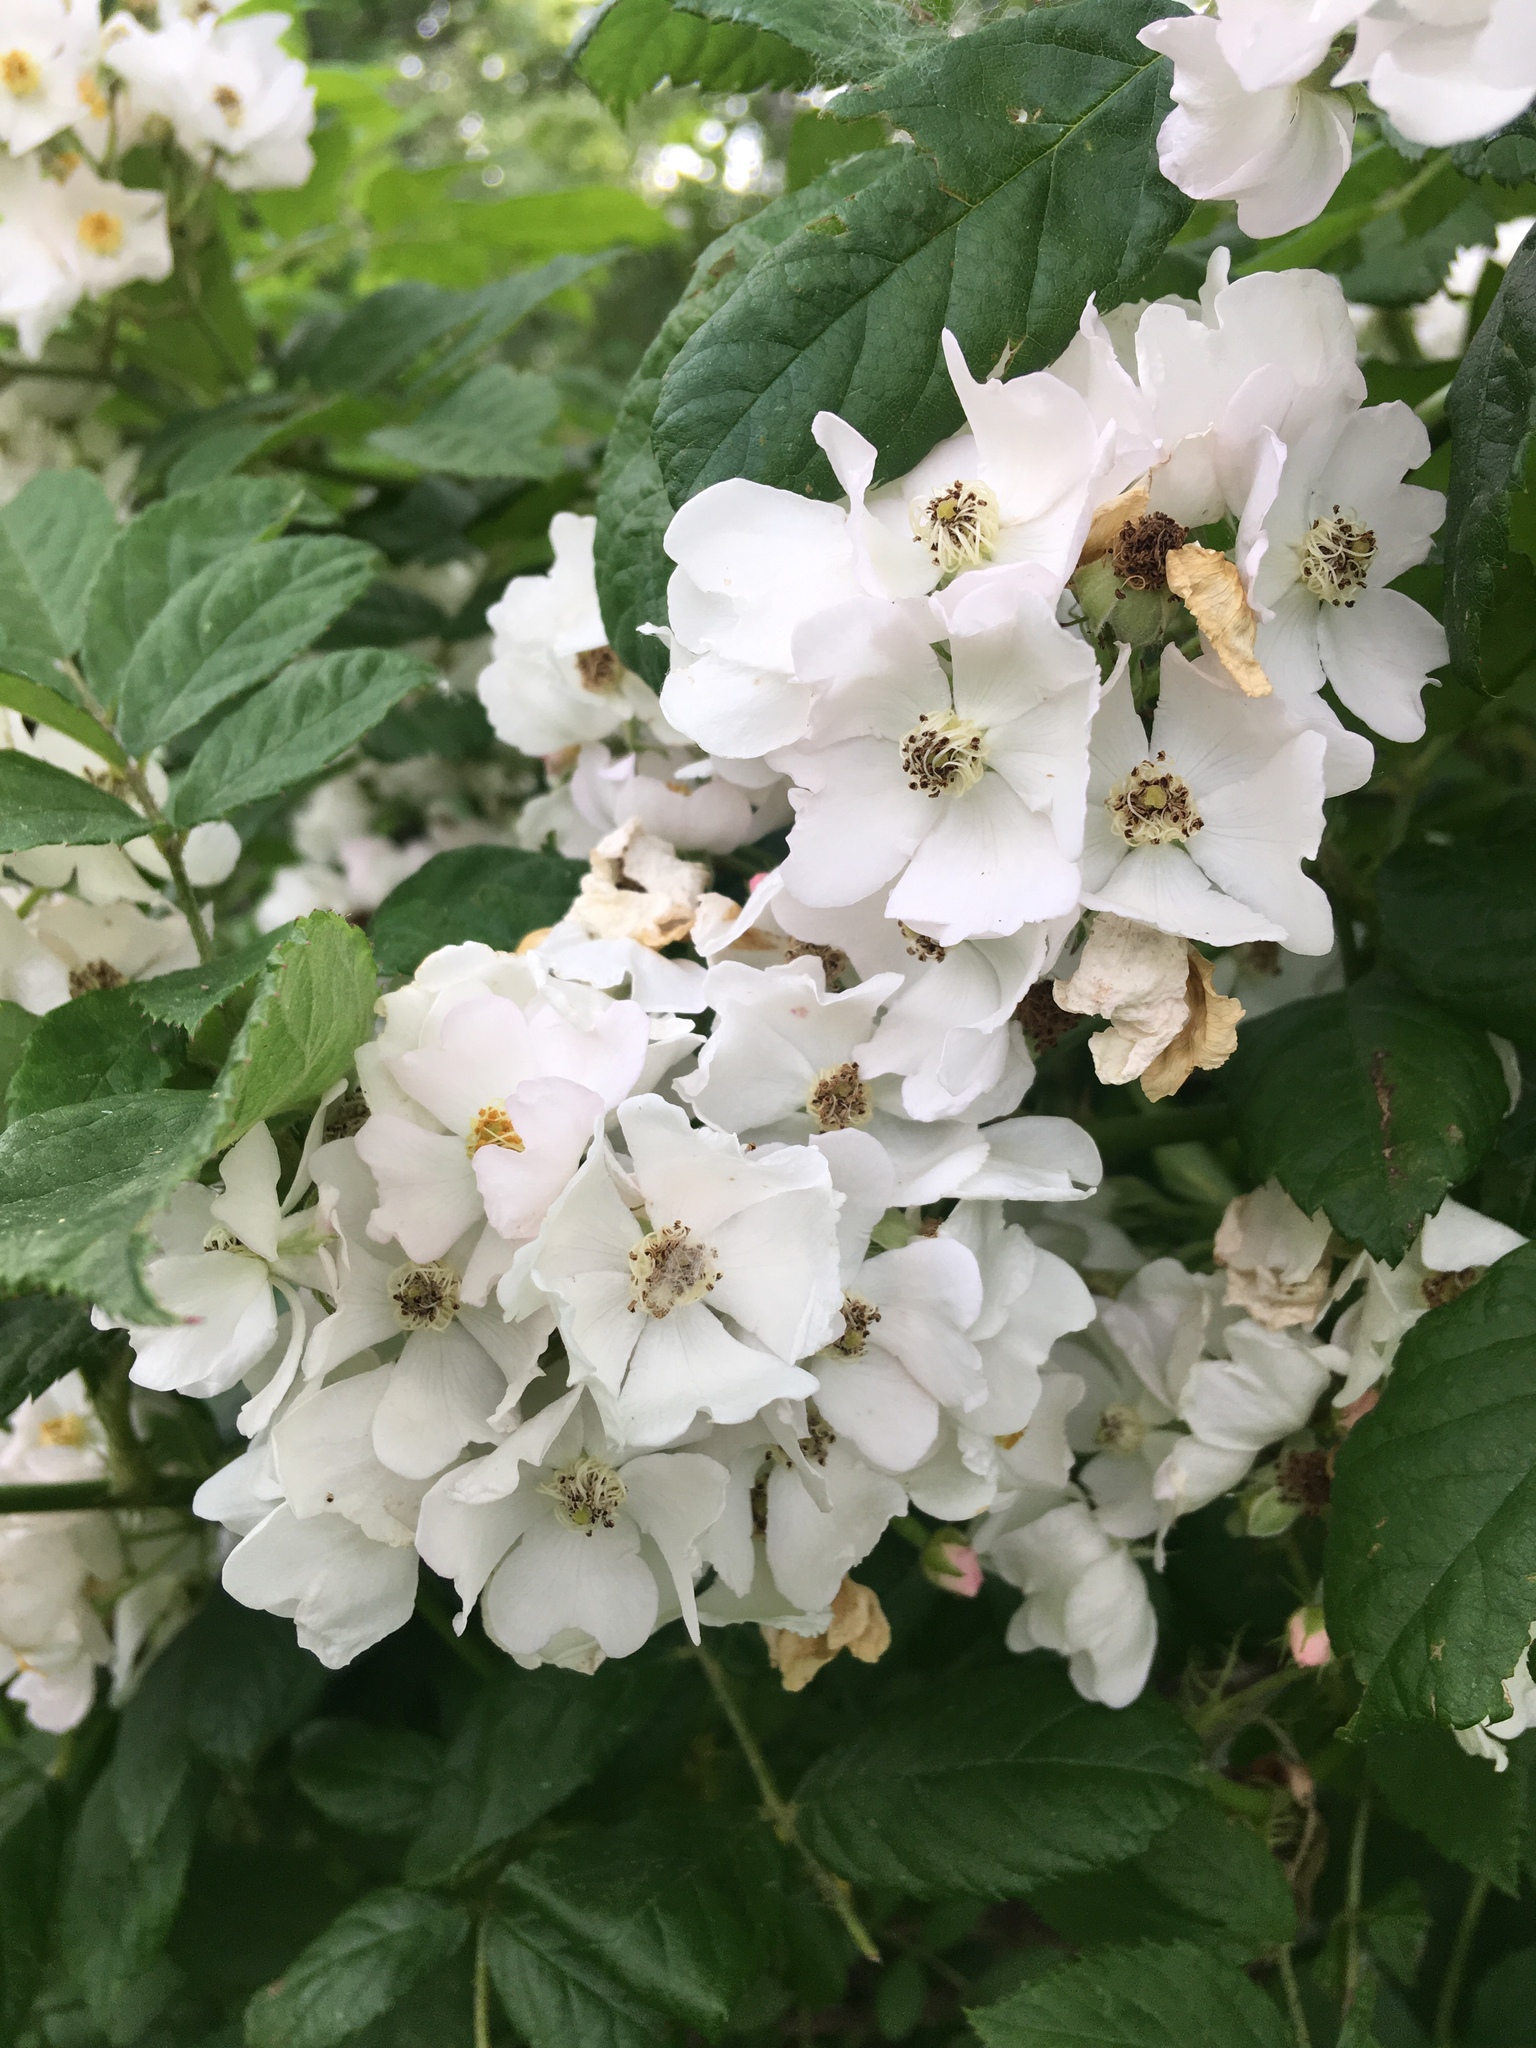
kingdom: Plantae
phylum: Tracheophyta
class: Magnoliopsida
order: Rosales
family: Rosaceae
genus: Rosa
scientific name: Rosa multiflora
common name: Multiflora rose
